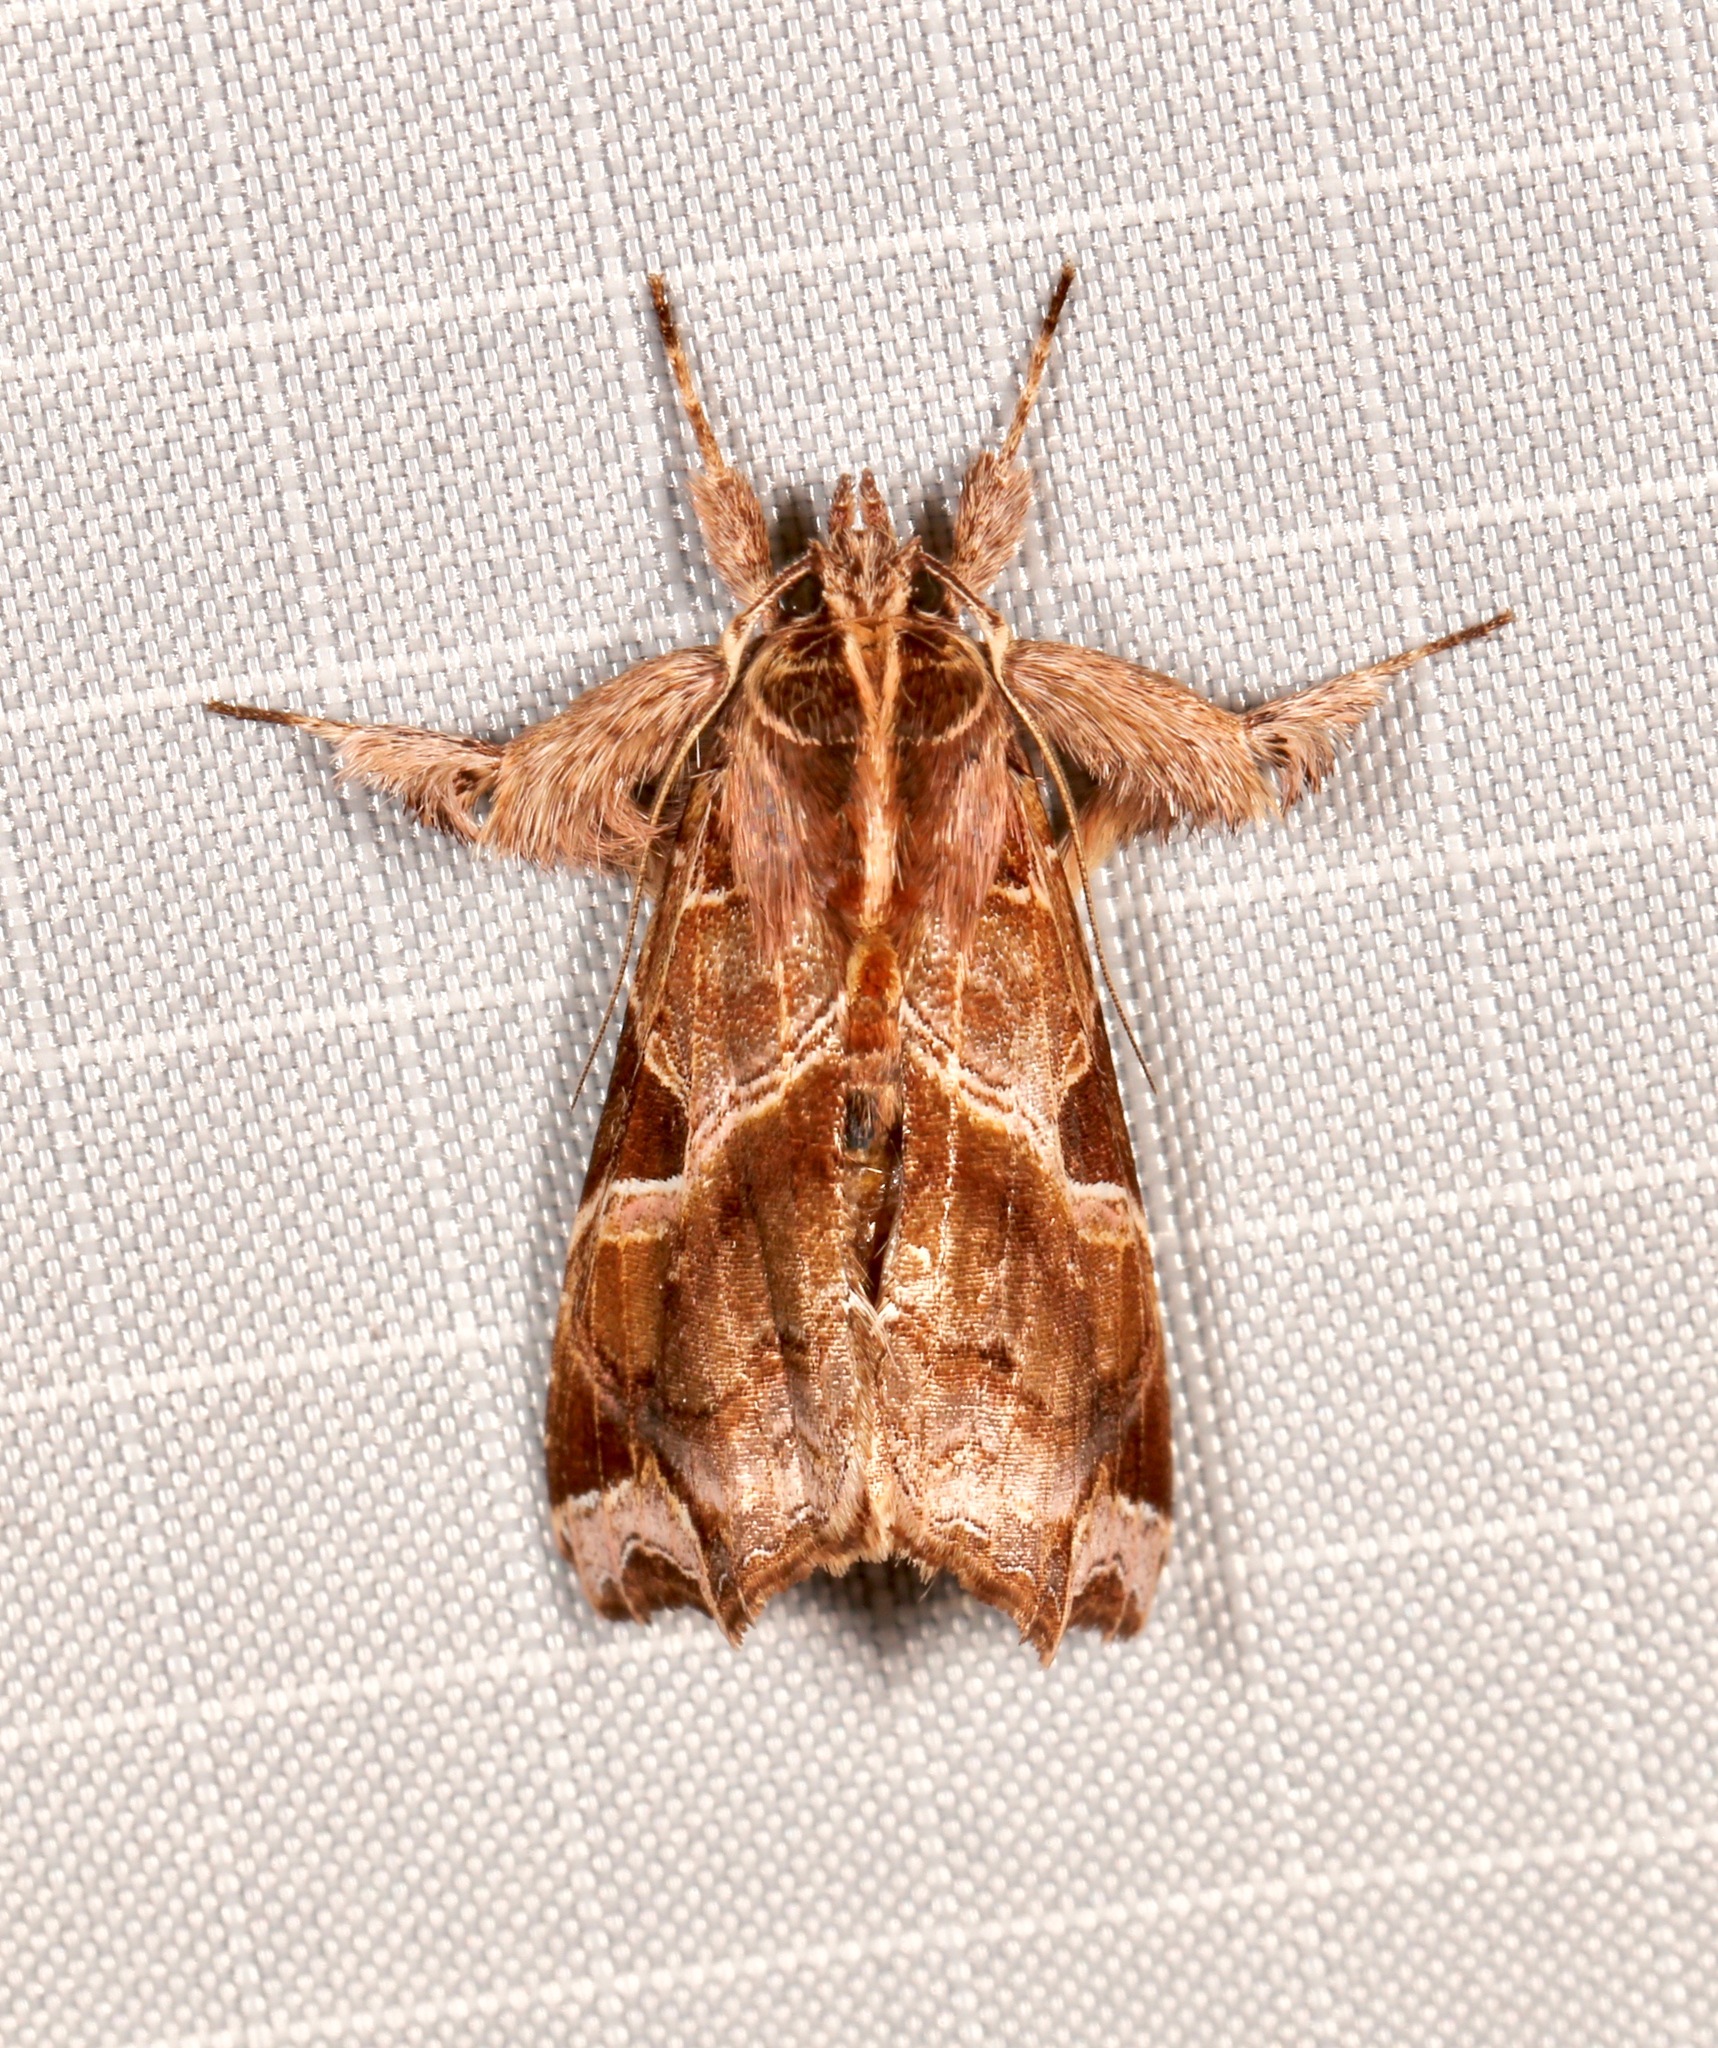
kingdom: Animalia
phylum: Arthropoda
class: Insecta
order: Lepidoptera
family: Noctuidae
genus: Callopistria
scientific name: Callopistria floridensis
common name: Florida fern moth
